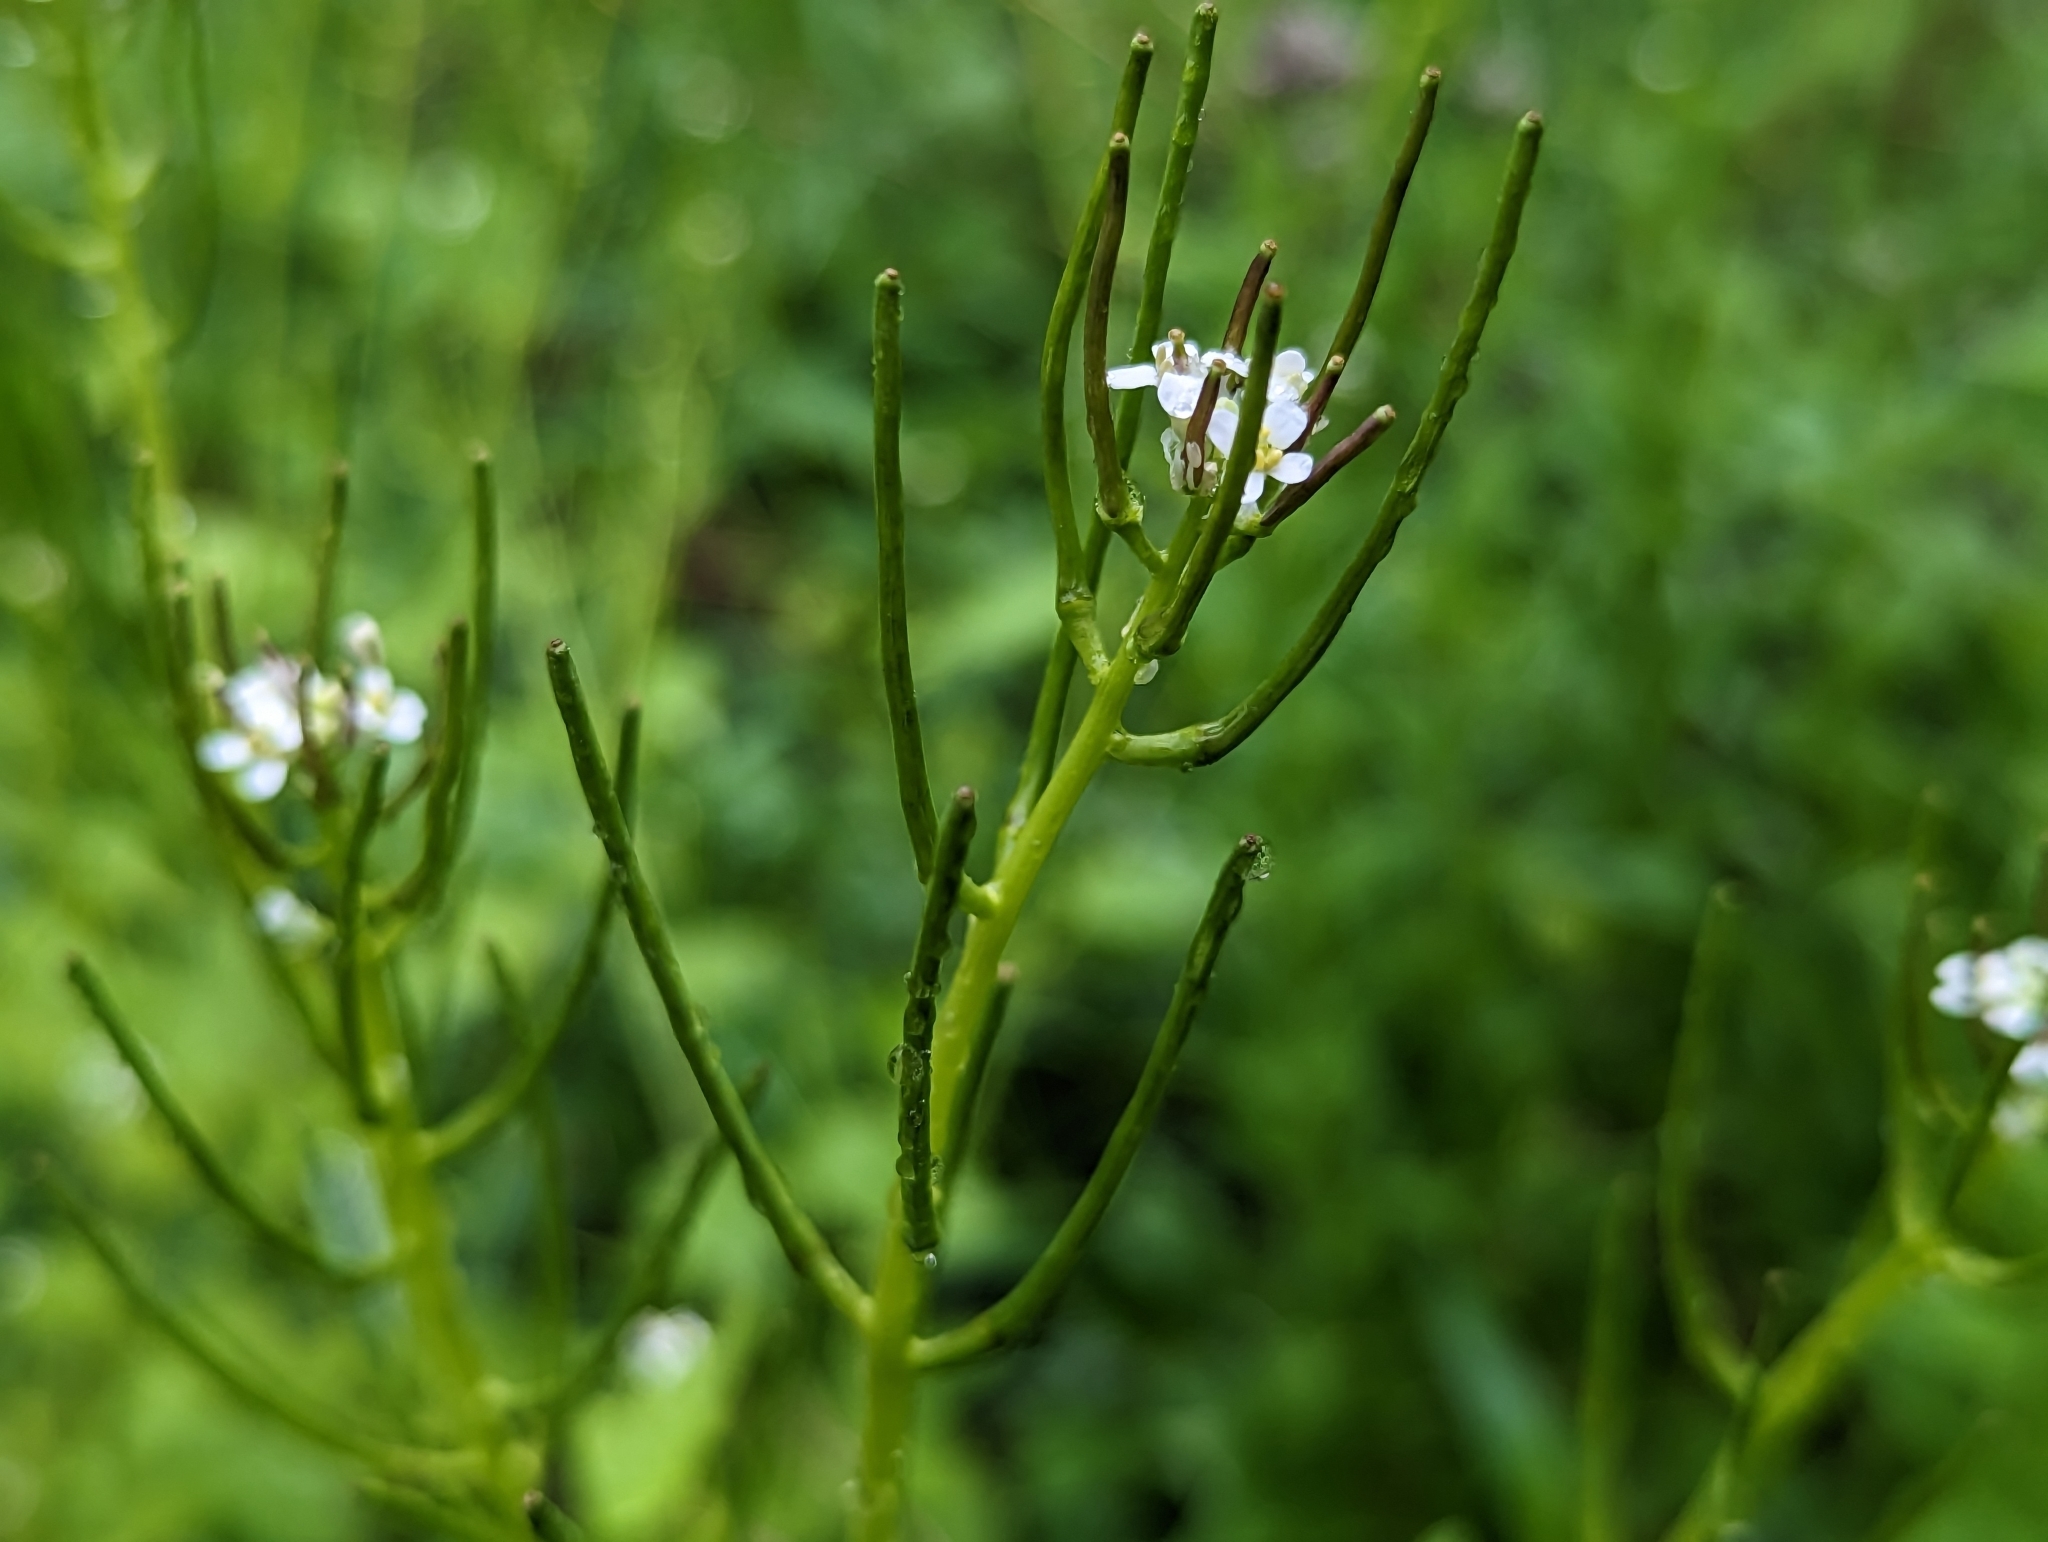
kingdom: Plantae
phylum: Tracheophyta
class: Magnoliopsida
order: Brassicales
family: Brassicaceae
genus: Cardamine
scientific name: Cardamine pensylvanica
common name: Pennsylvania bittercress
